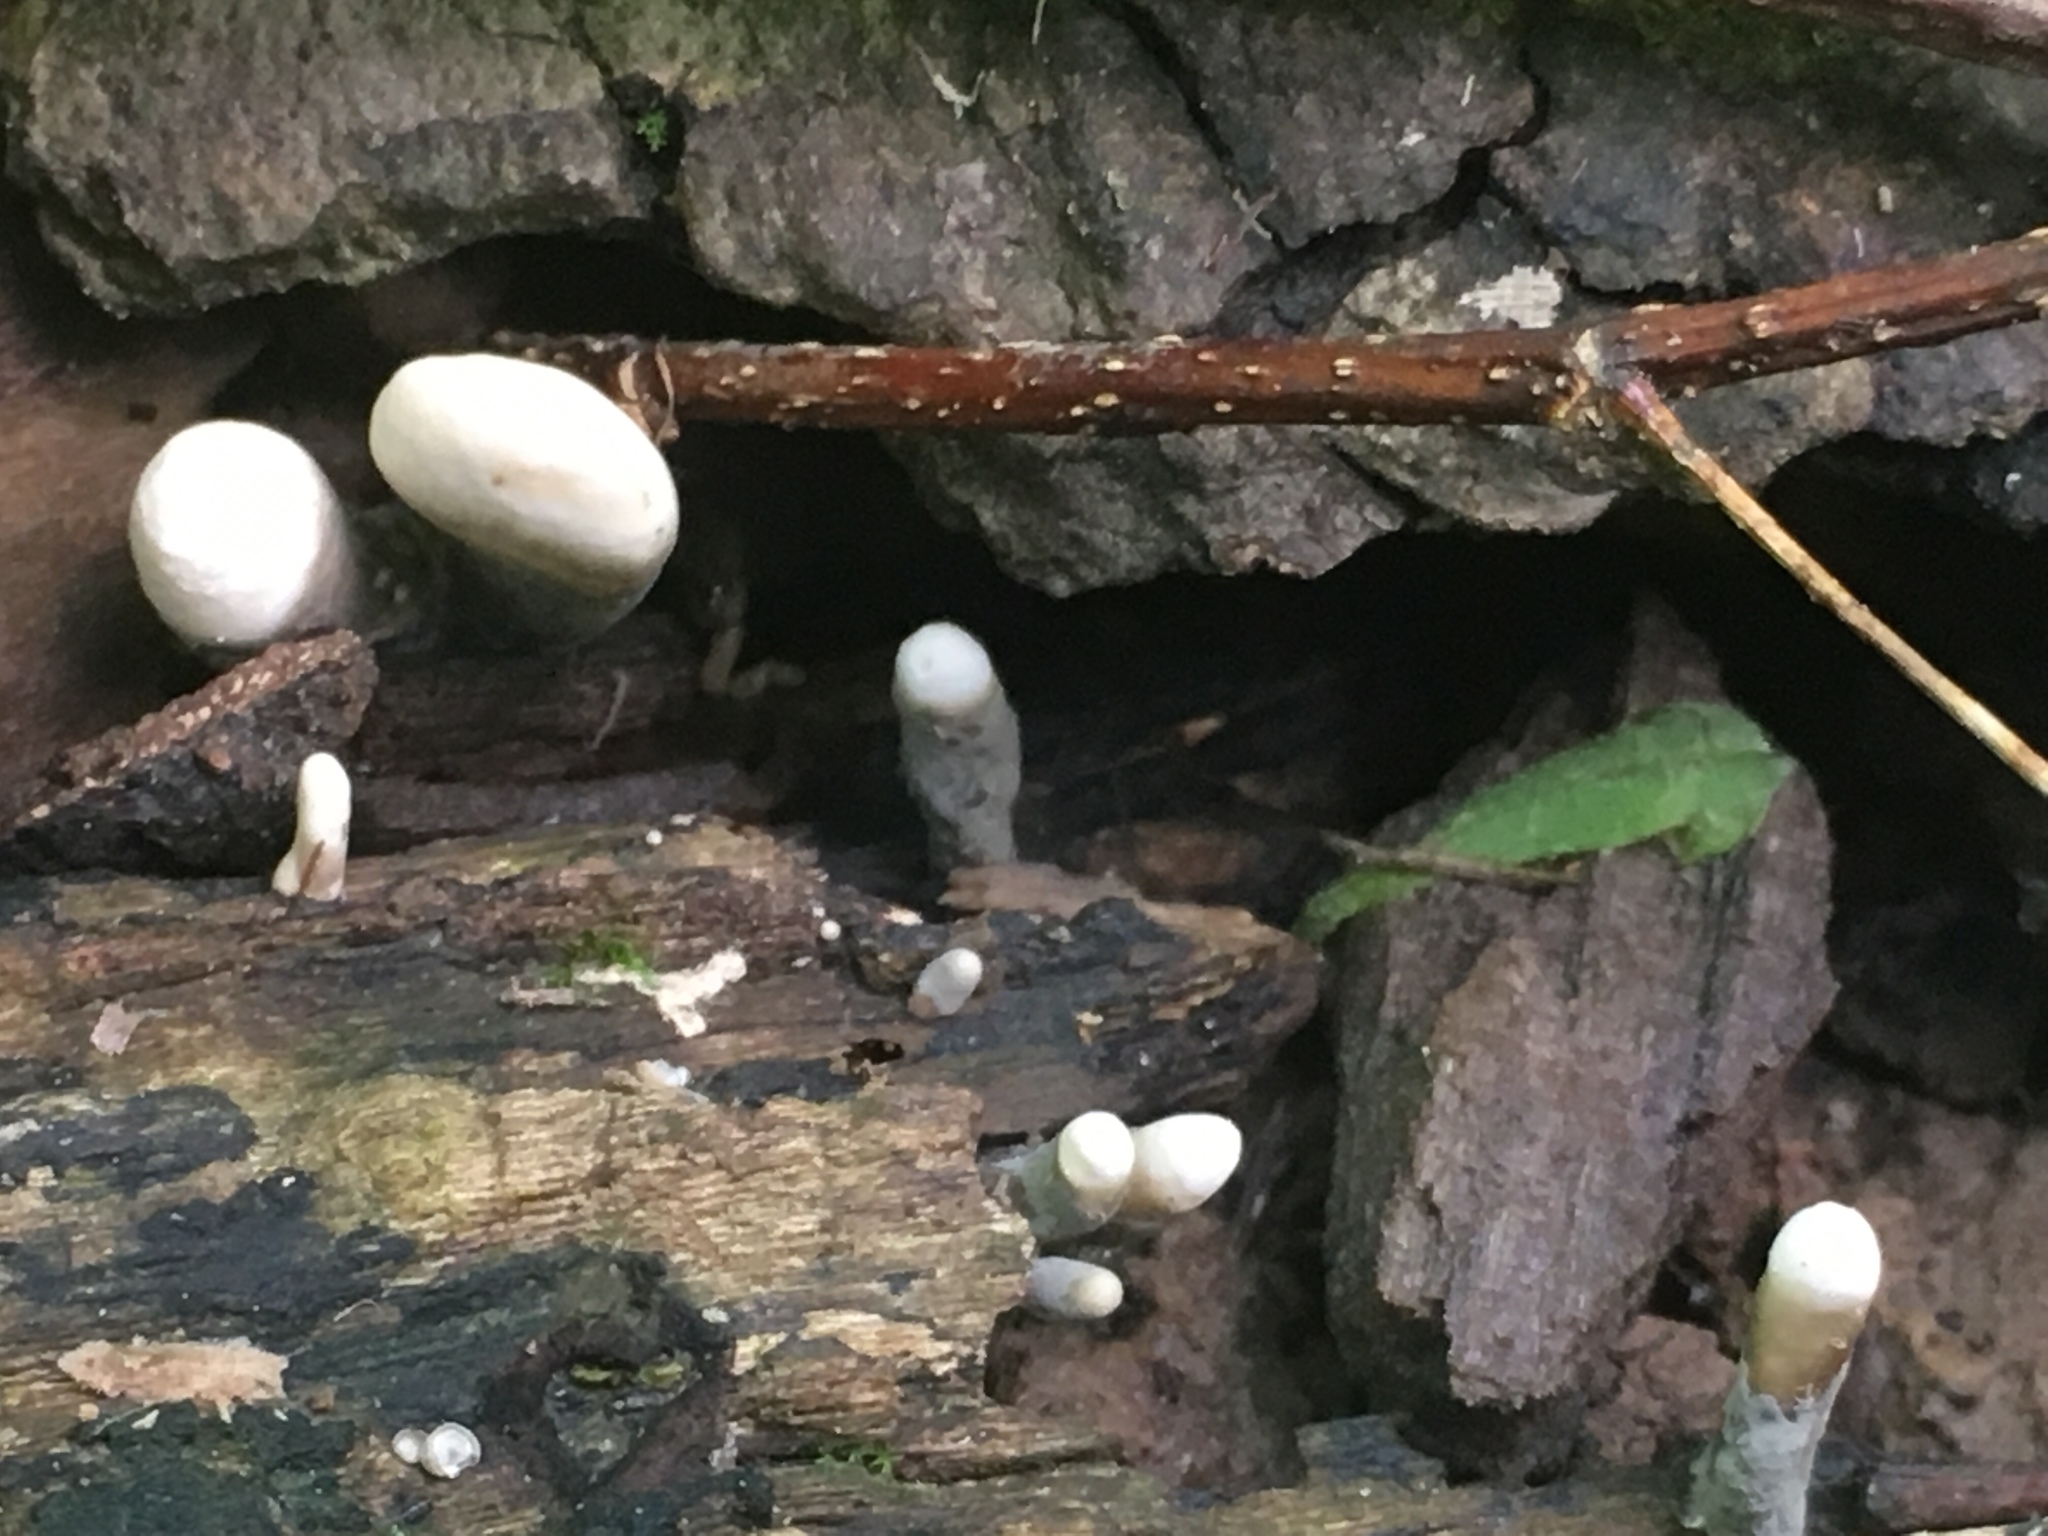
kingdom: Fungi
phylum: Ascomycota
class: Sordariomycetes
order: Xylariales
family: Xylariaceae
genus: Xylaria
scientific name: Xylaria polymorpha
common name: Dead man's fingers
